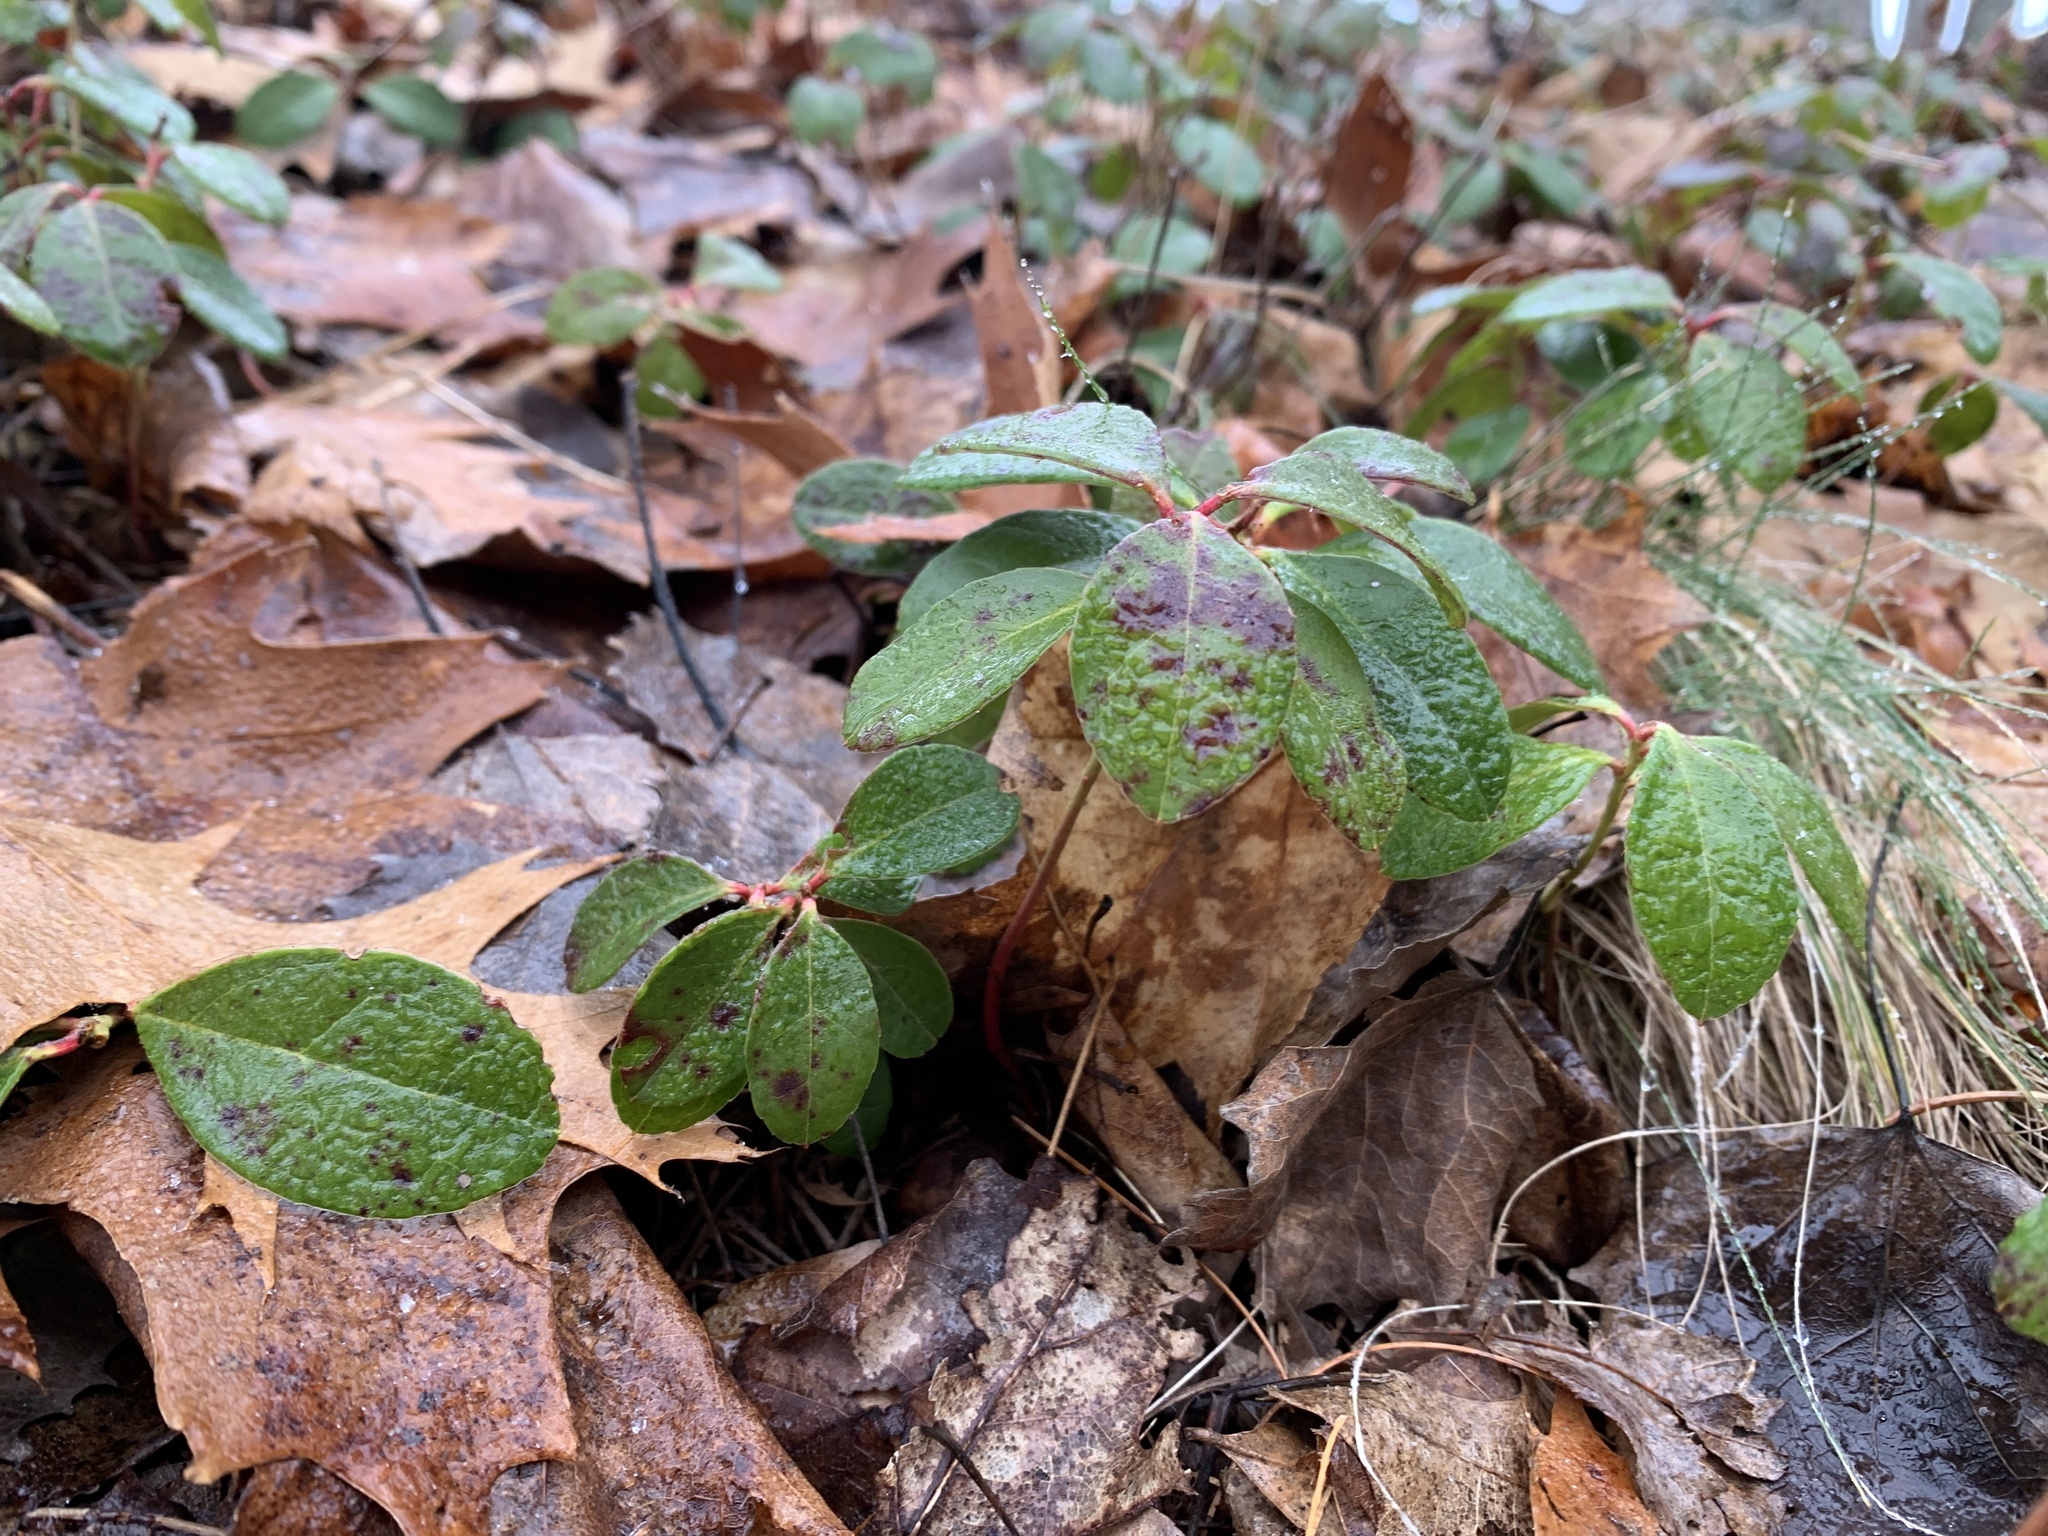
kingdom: Plantae
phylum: Tracheophyta
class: Magnoliopsida
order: Ericales
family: Ericaceae
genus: Gaultheria
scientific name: Gaultheria procumbens
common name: Checkerberry
